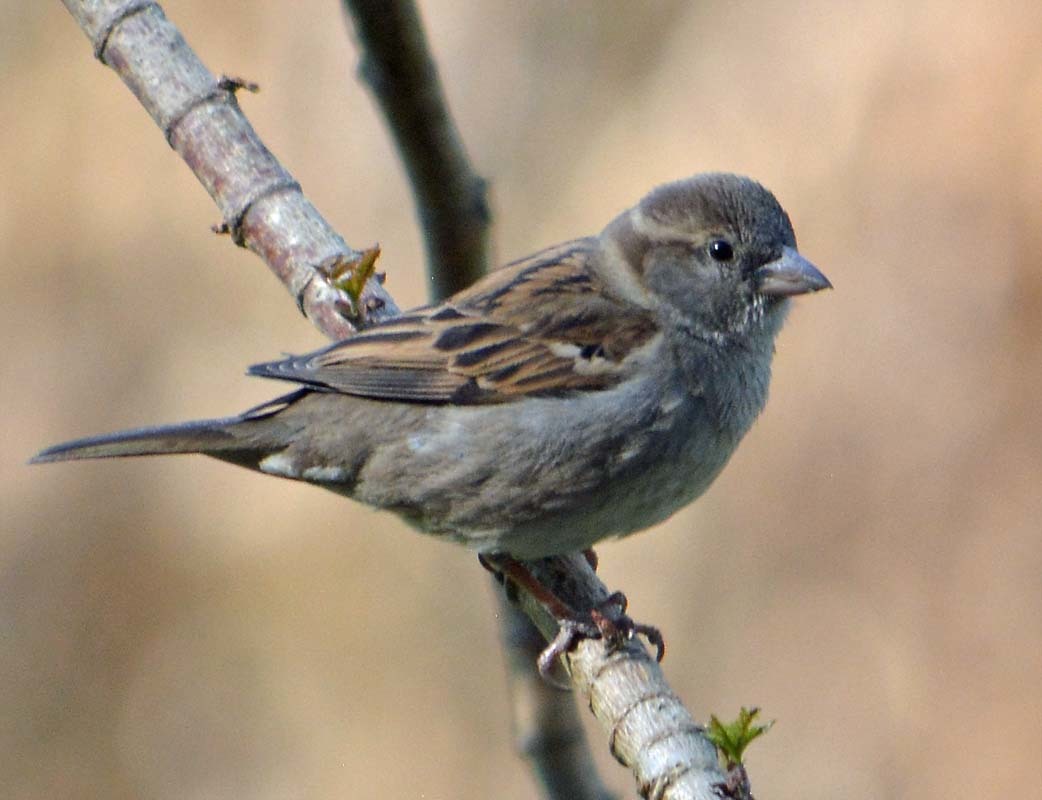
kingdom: Animalia
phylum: Chordata
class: Aves
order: Passeriformes
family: Passeridae
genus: Passer
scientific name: Passer domesticus
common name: House sparrow
